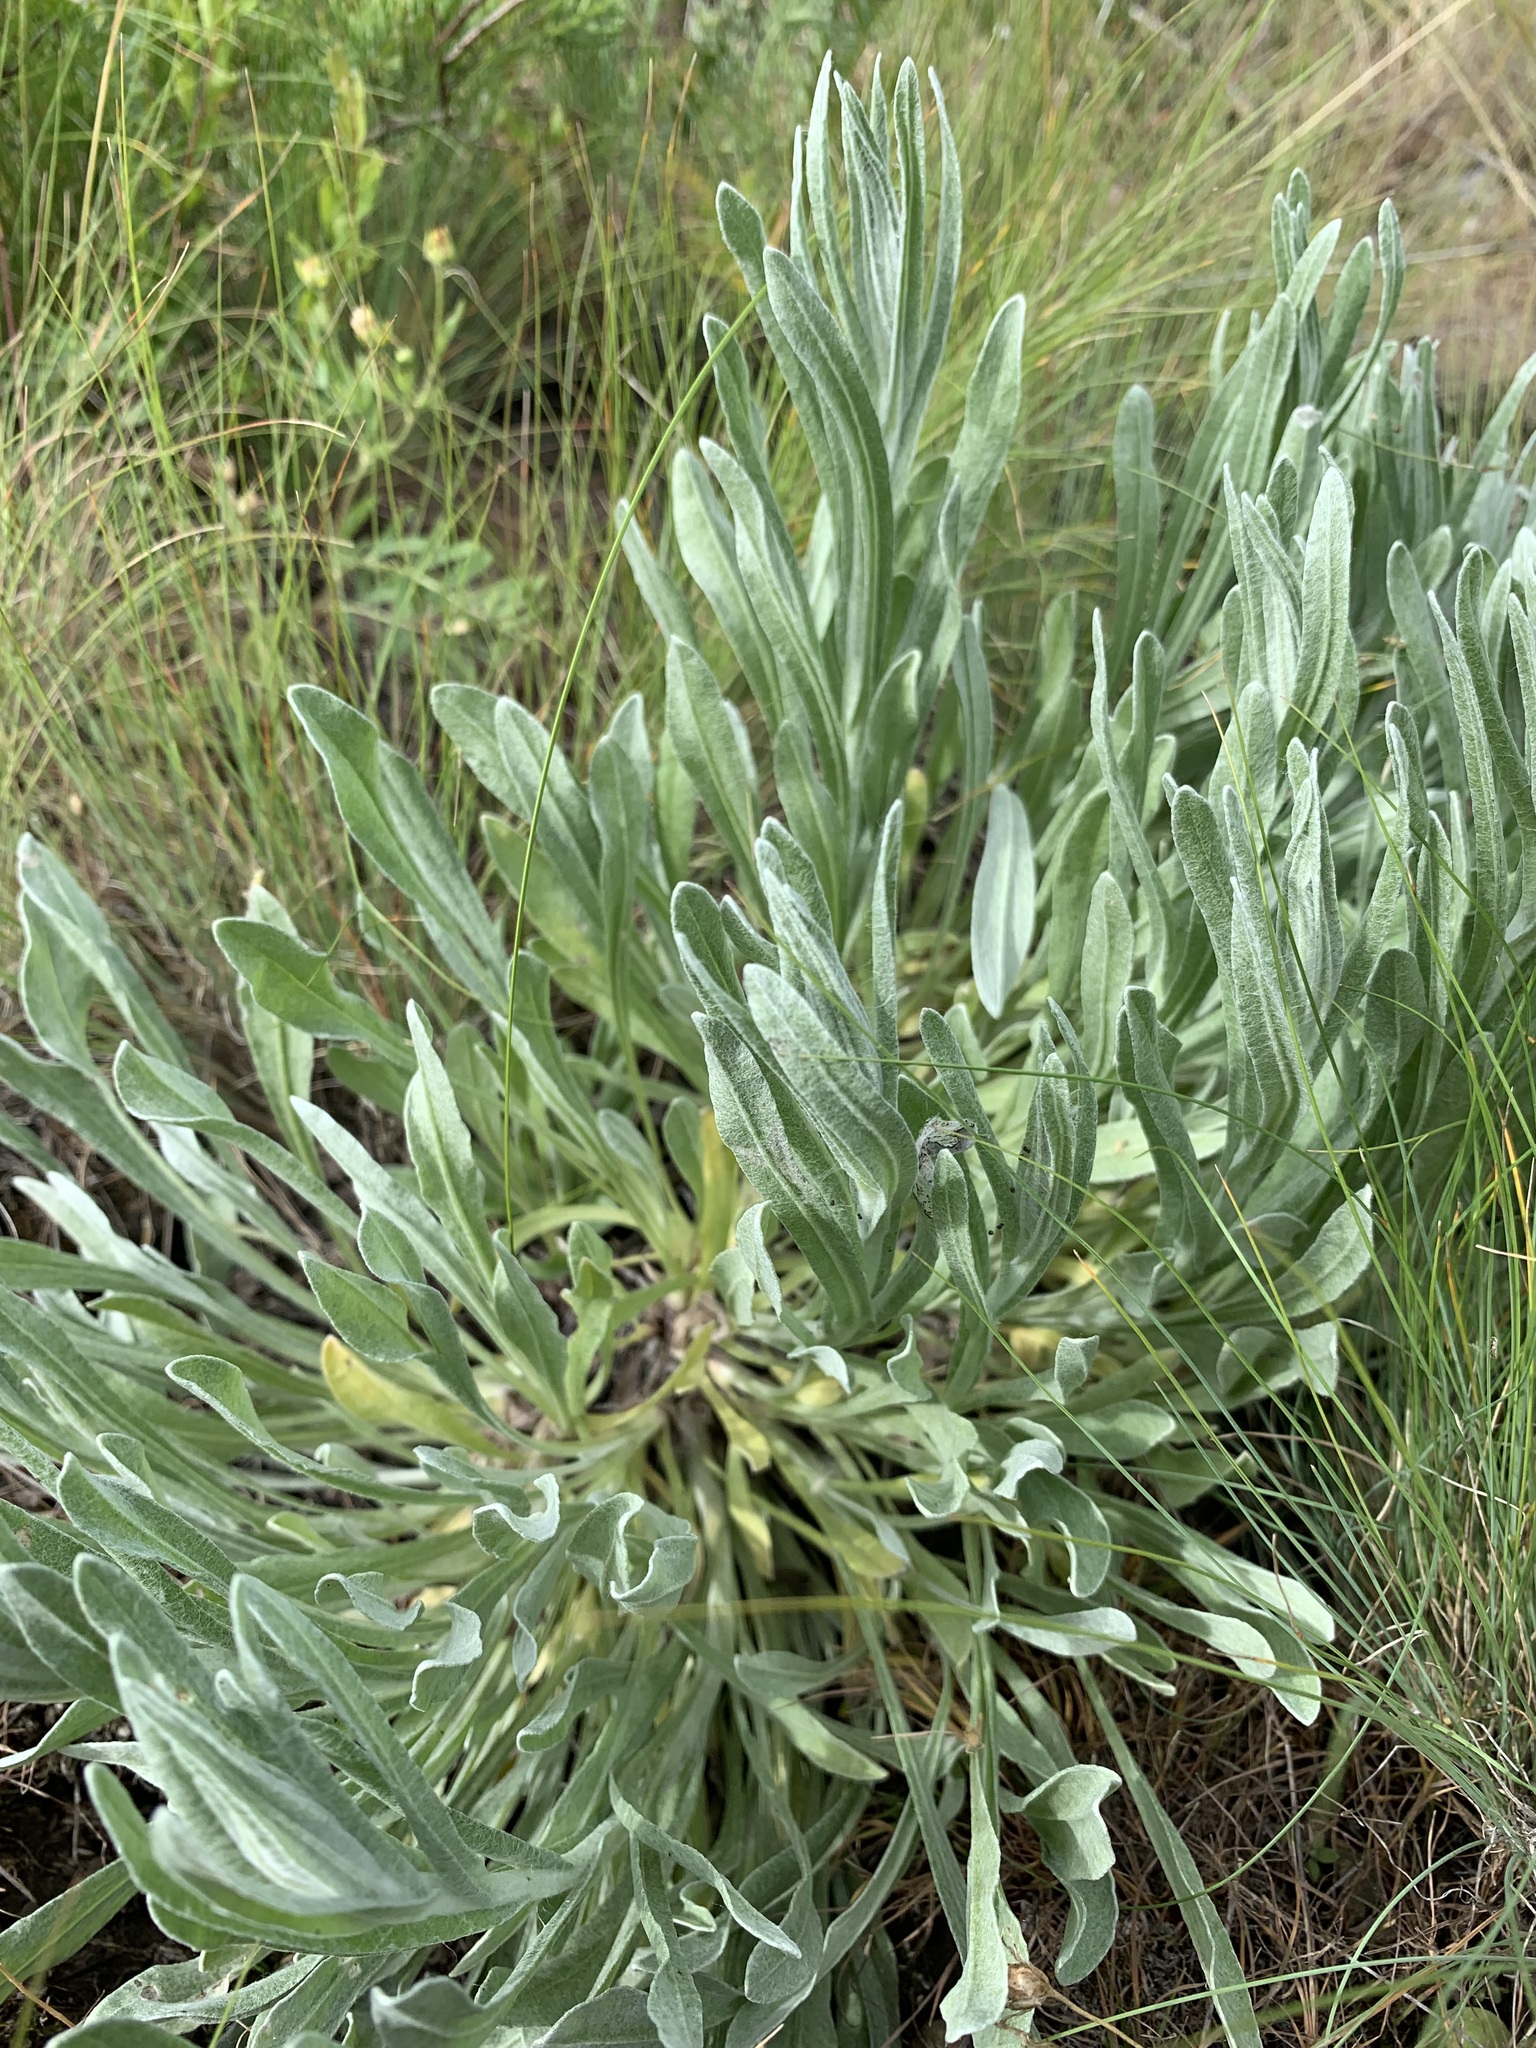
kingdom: Plantae
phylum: Tracheophyta
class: Magnoliopsida
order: Asterales
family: Asteraceae
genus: Helichrysum
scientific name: Helichrysum arenarium
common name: Strawflower
